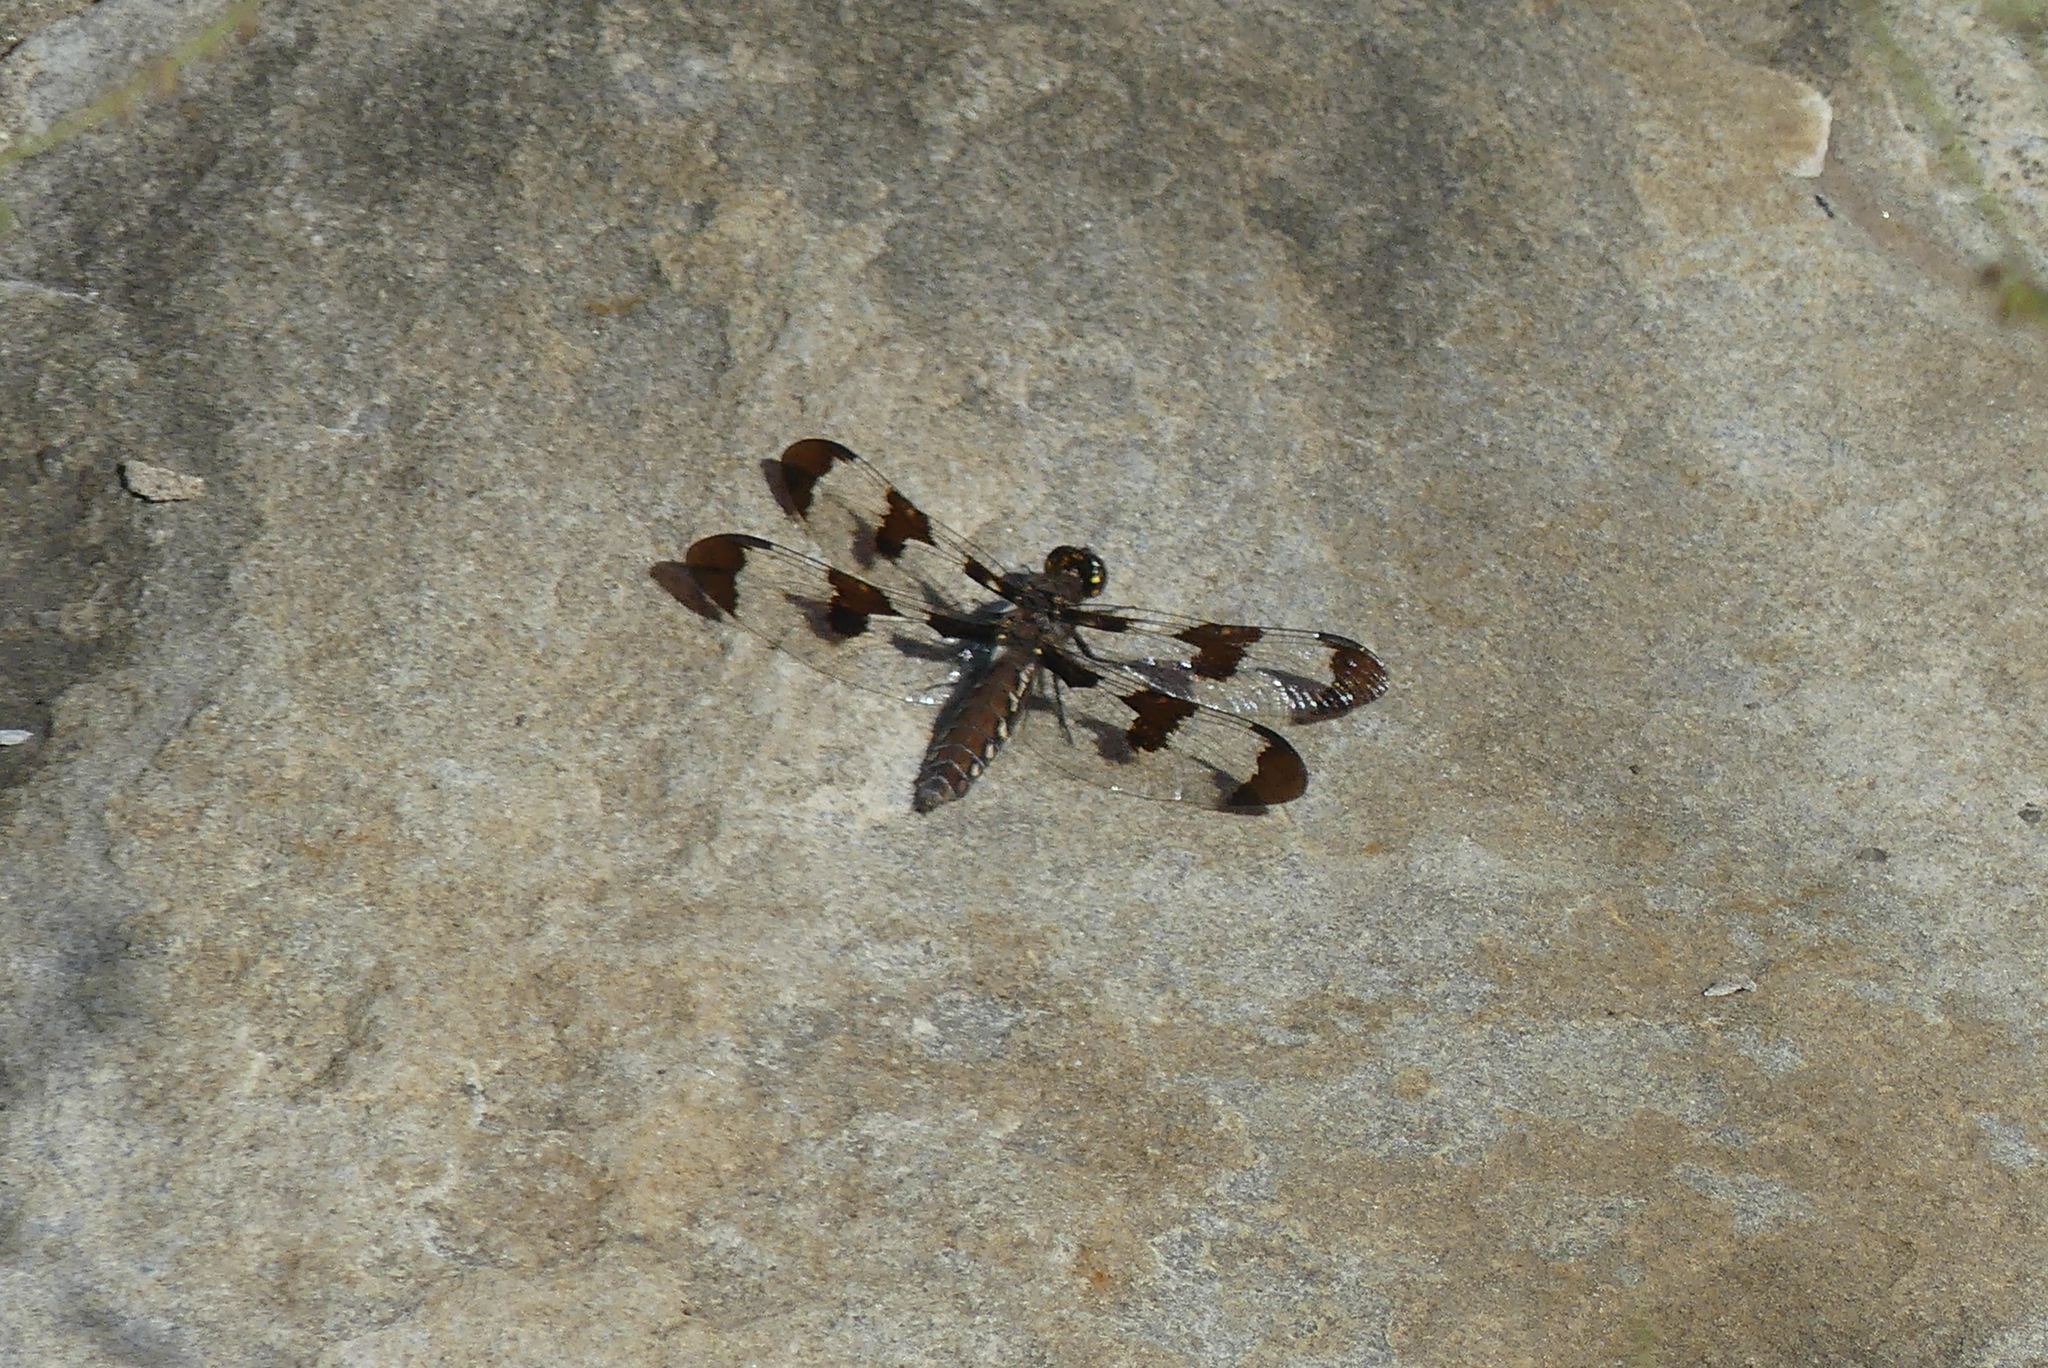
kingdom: Animalia
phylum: Arthropoda
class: Insecta
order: Odonata
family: Libellulidae
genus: Plathemis
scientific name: Plathemis lydia
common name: Common whitetail
